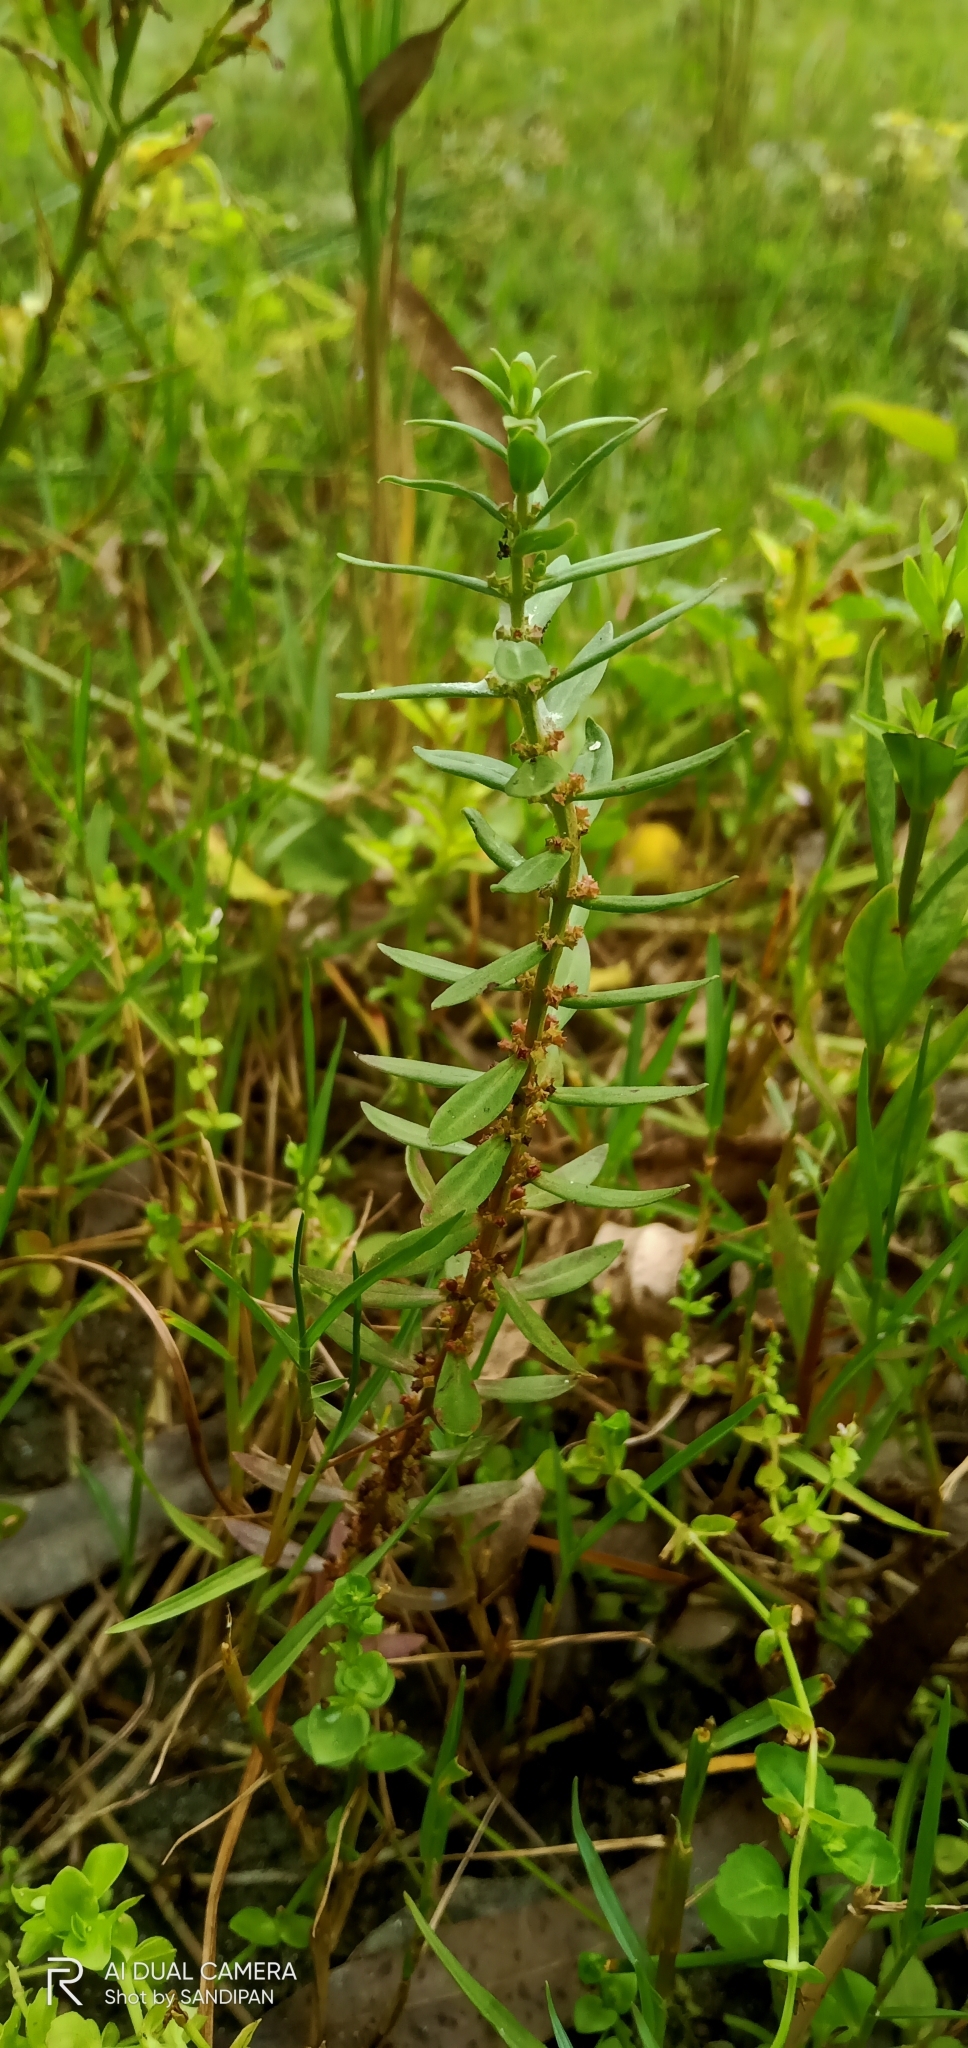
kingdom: Plantae
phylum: Tracheophyta
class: Magnoliopsida
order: Myrtales
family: Lythraceae
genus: Ammannia
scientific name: Ammannia baccifera
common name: Blistering ammania
